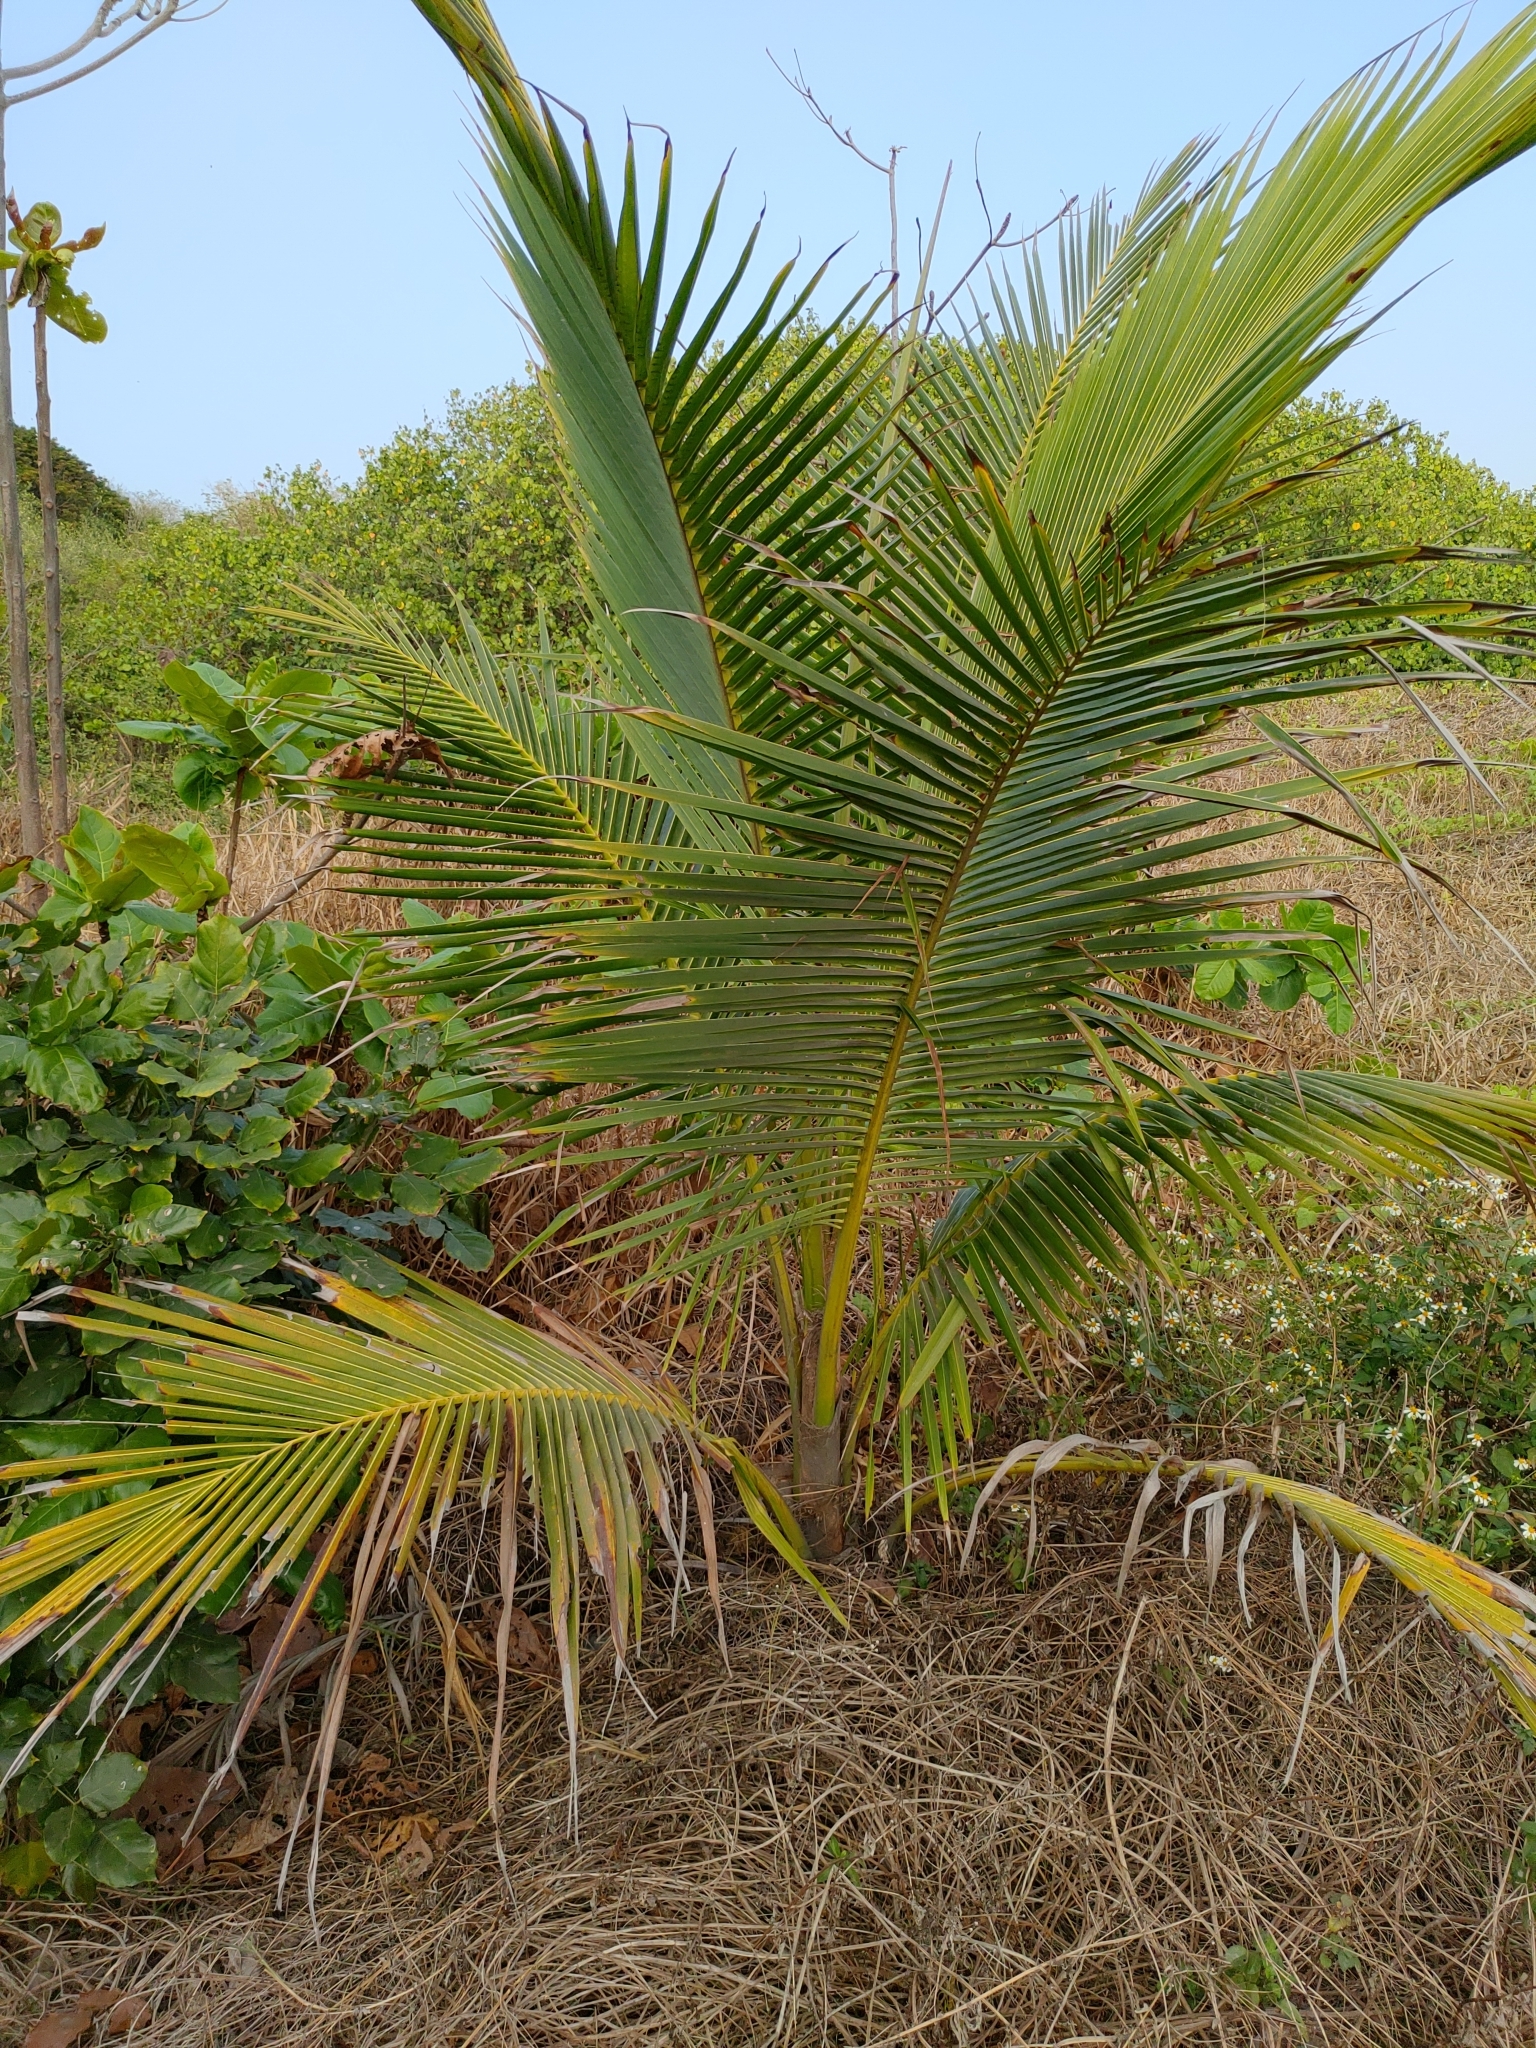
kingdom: Plantae
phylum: Tracheophyta
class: Liliopsida
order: Arecales
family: Arecaceae
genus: Cocos
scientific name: Cocos nucifera
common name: Coconut palm
